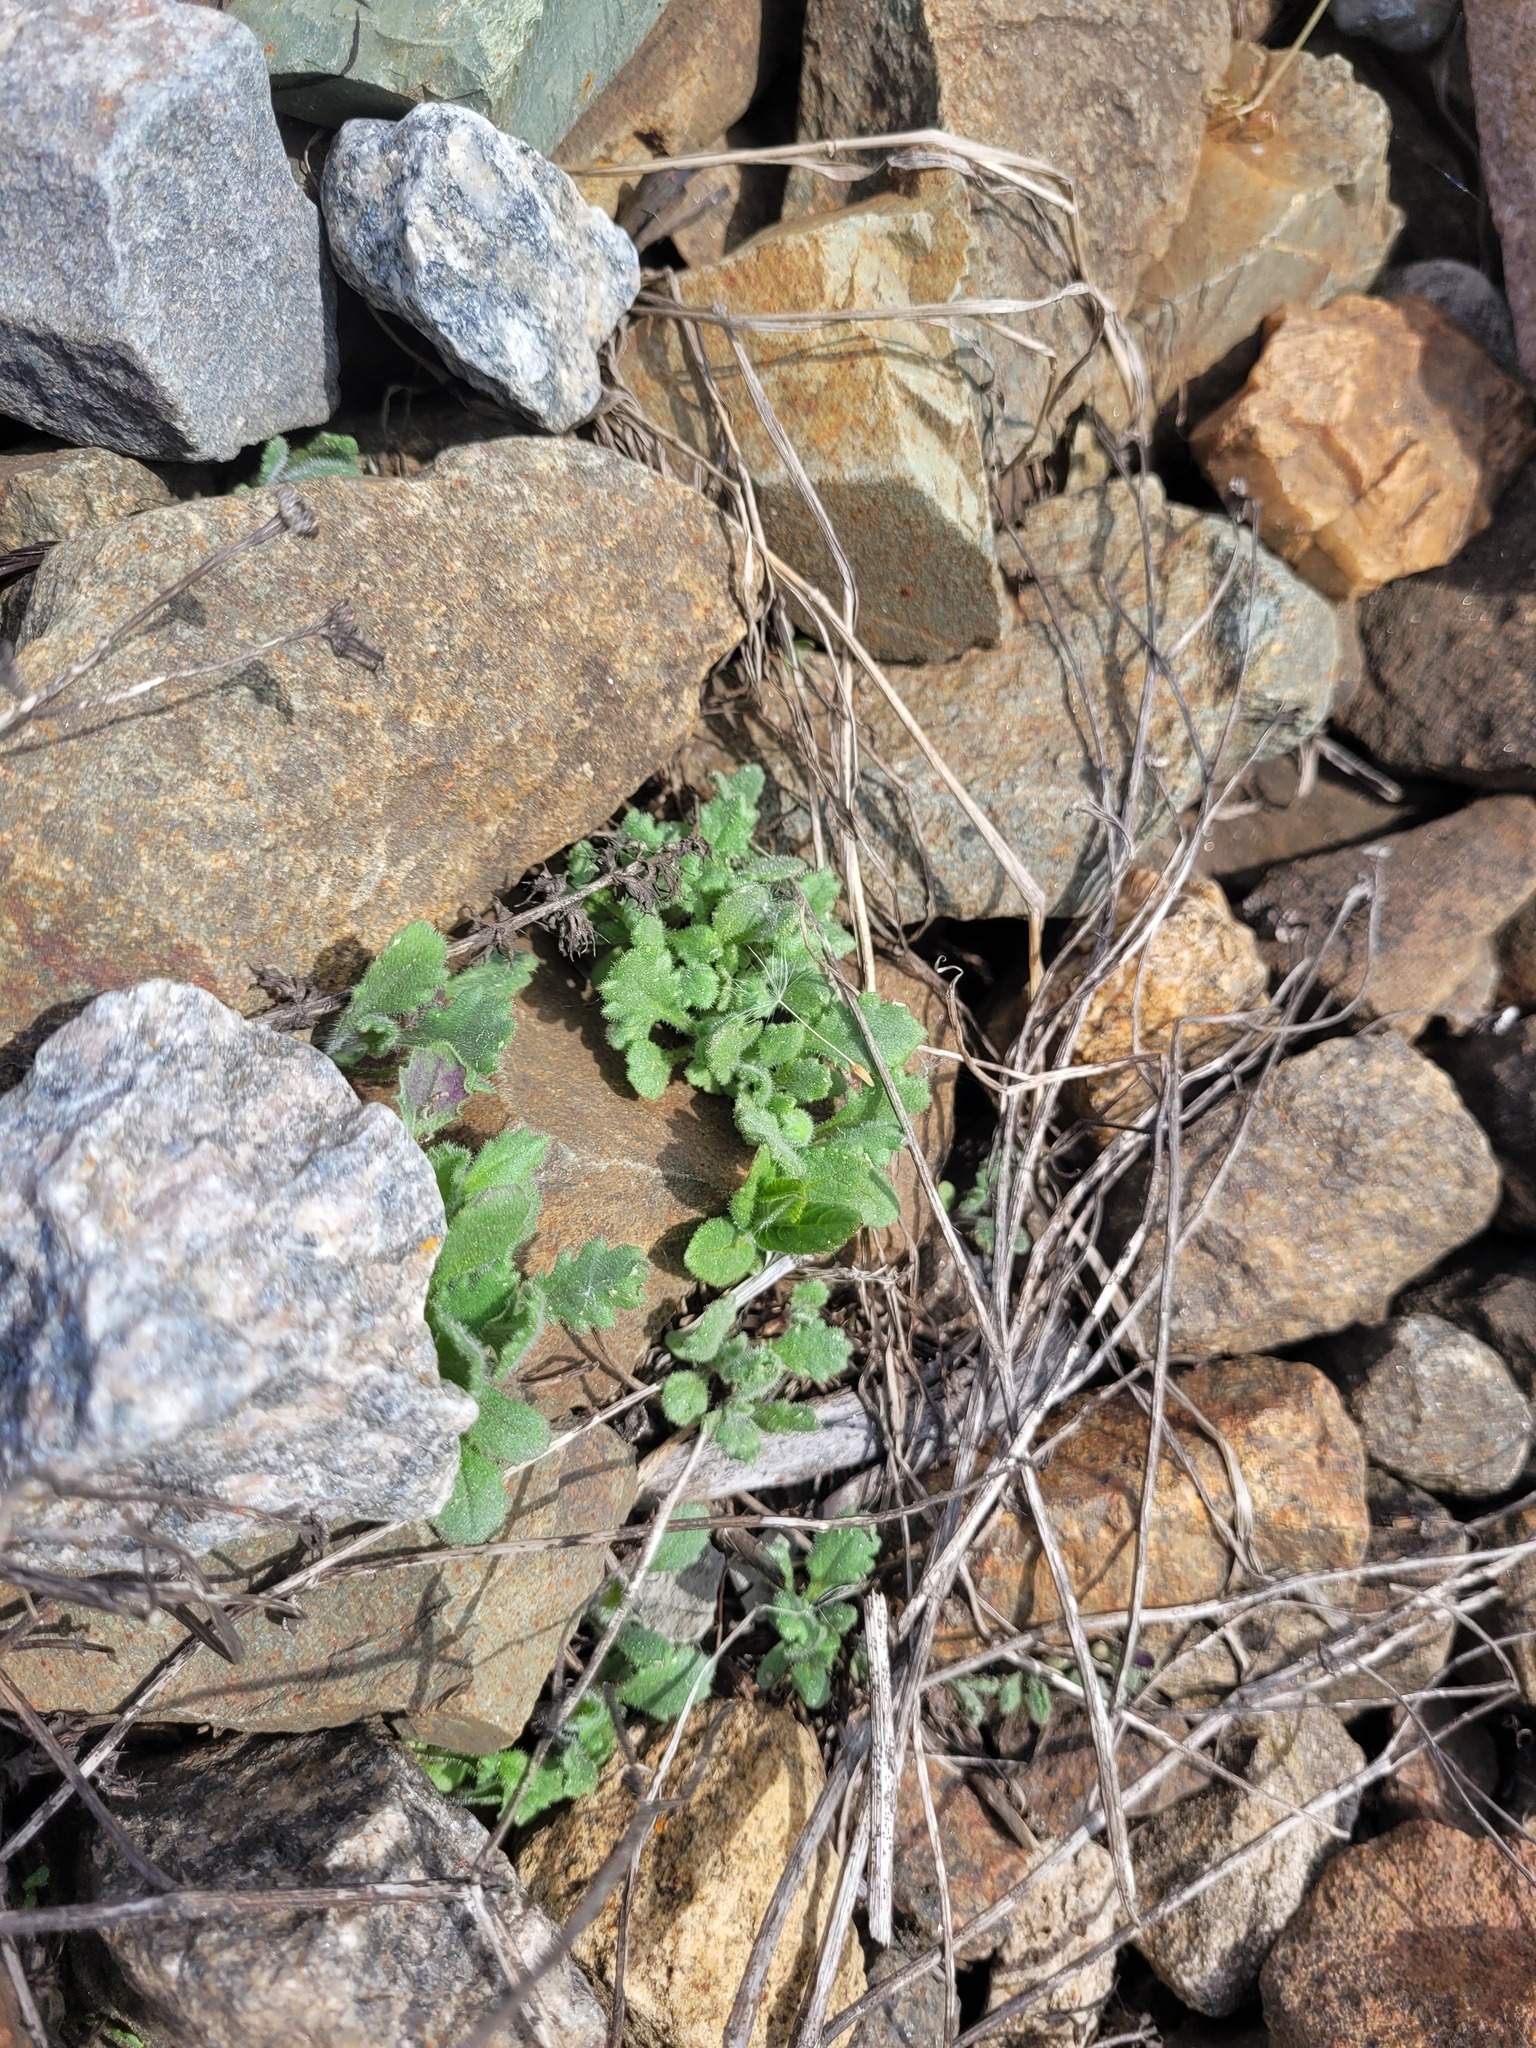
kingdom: Plantae
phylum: Tracheophyta
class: Magnoliopsida
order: Asterales
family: Asteraceae
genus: Senecio
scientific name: Senecio viscosus
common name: Sticky groundsel
